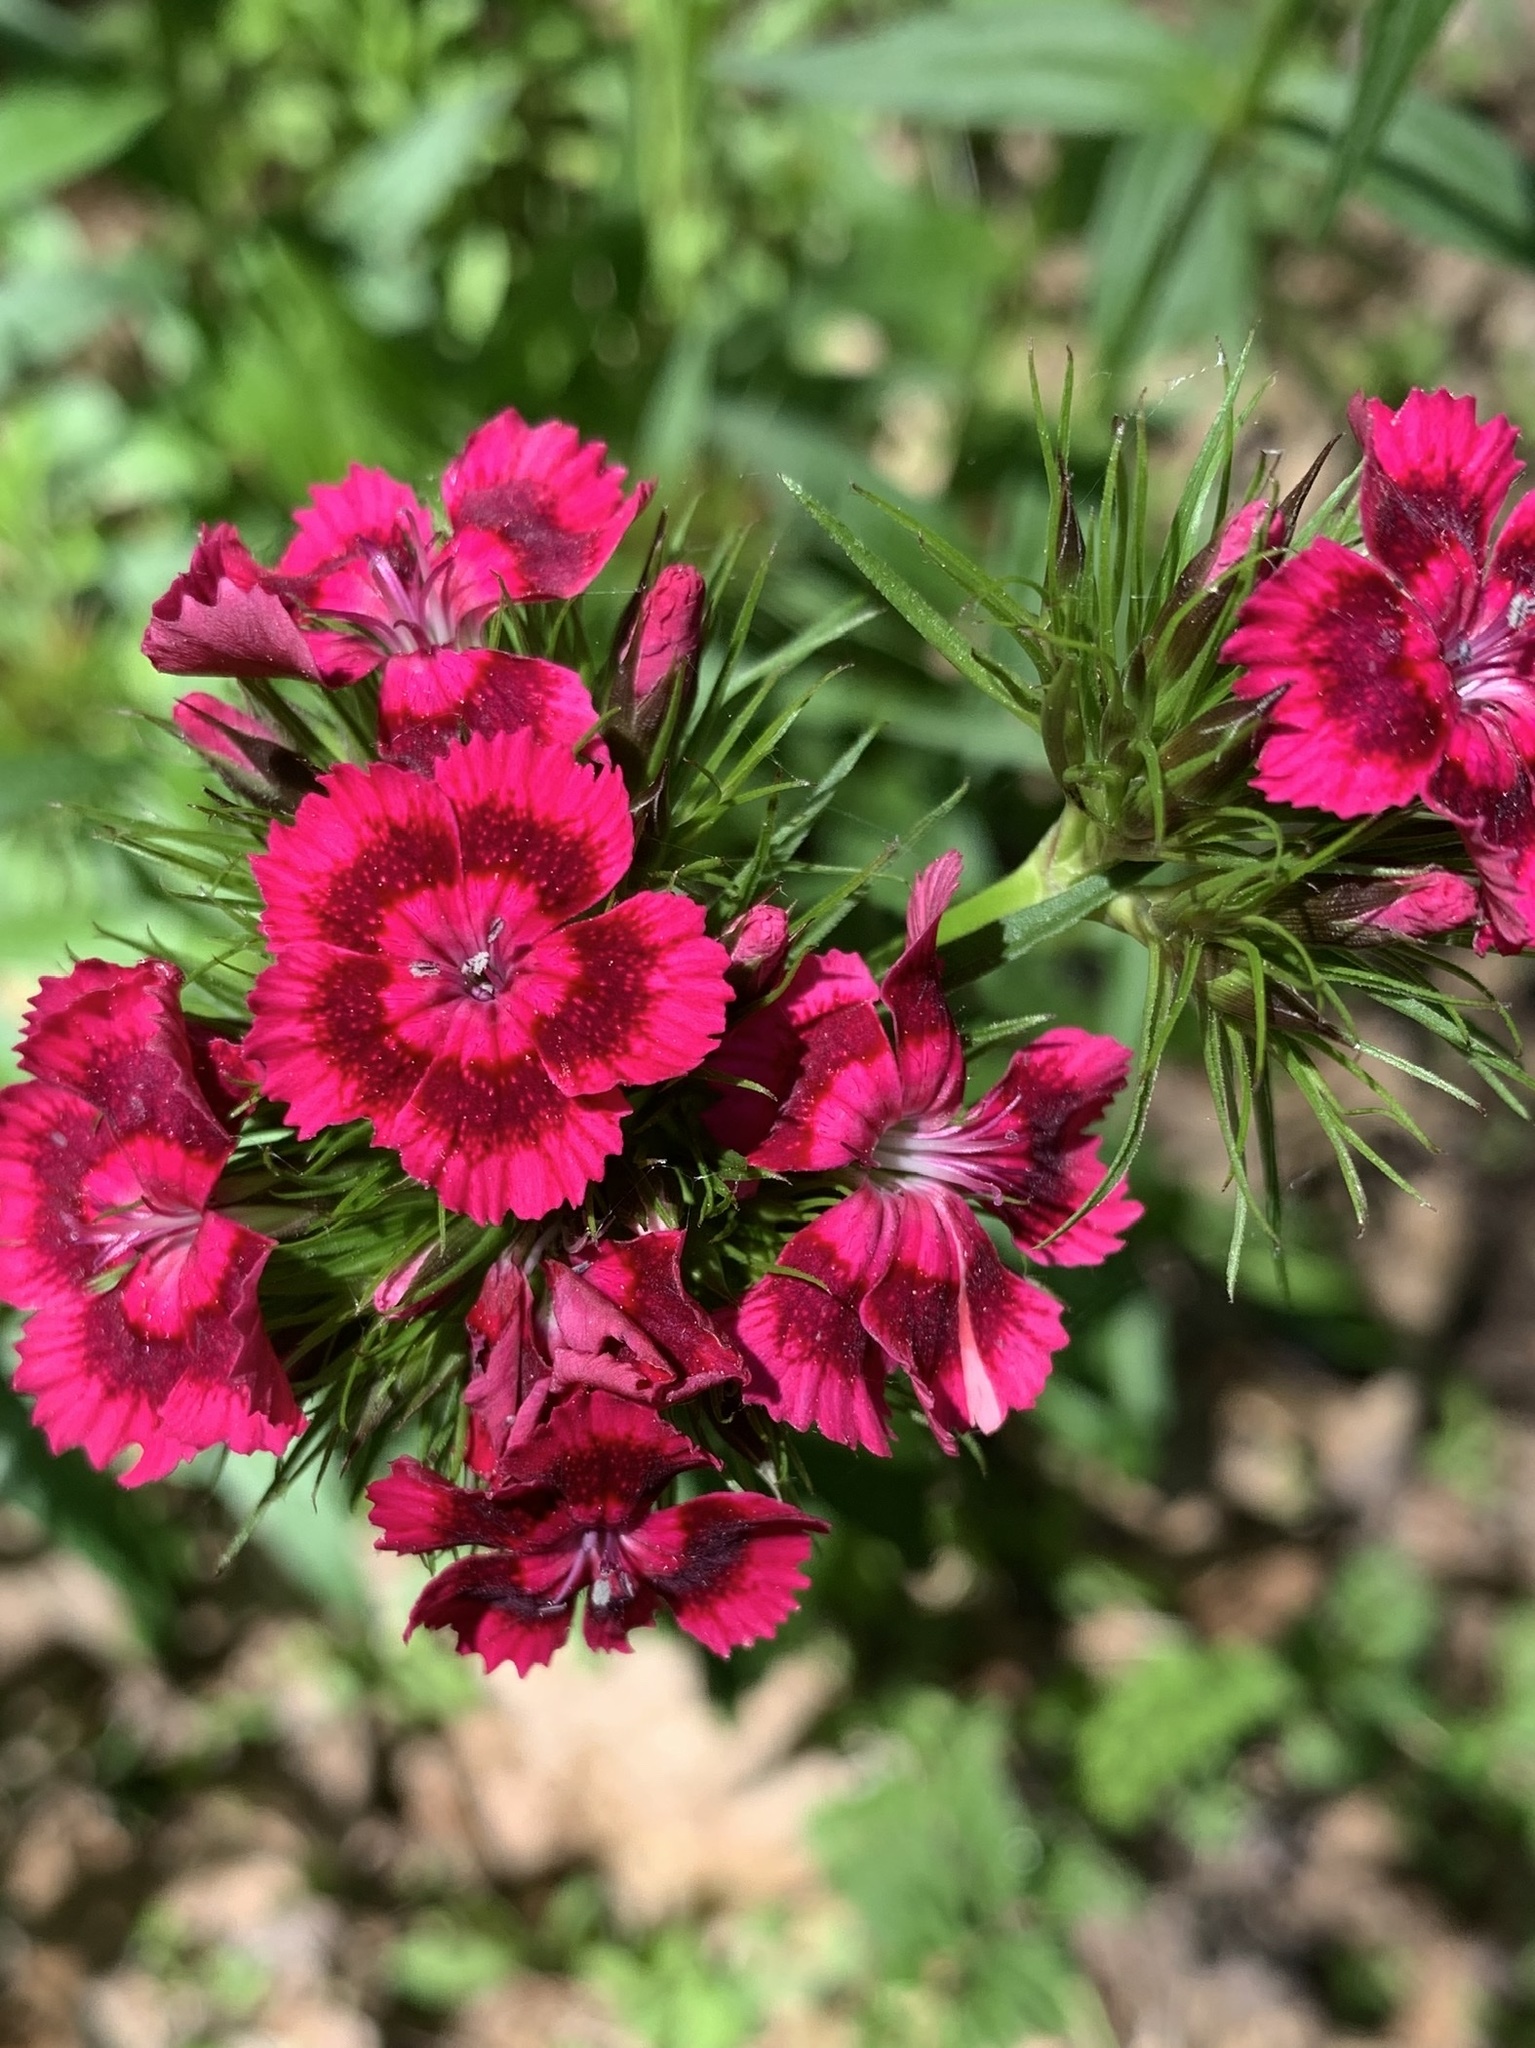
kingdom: Plantae
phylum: Tracheophyta
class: Magnoliopsida
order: Caryophyllales
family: Caryophyllaceae
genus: Dianthus
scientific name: Dianthus barbatus
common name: Sweet-william
